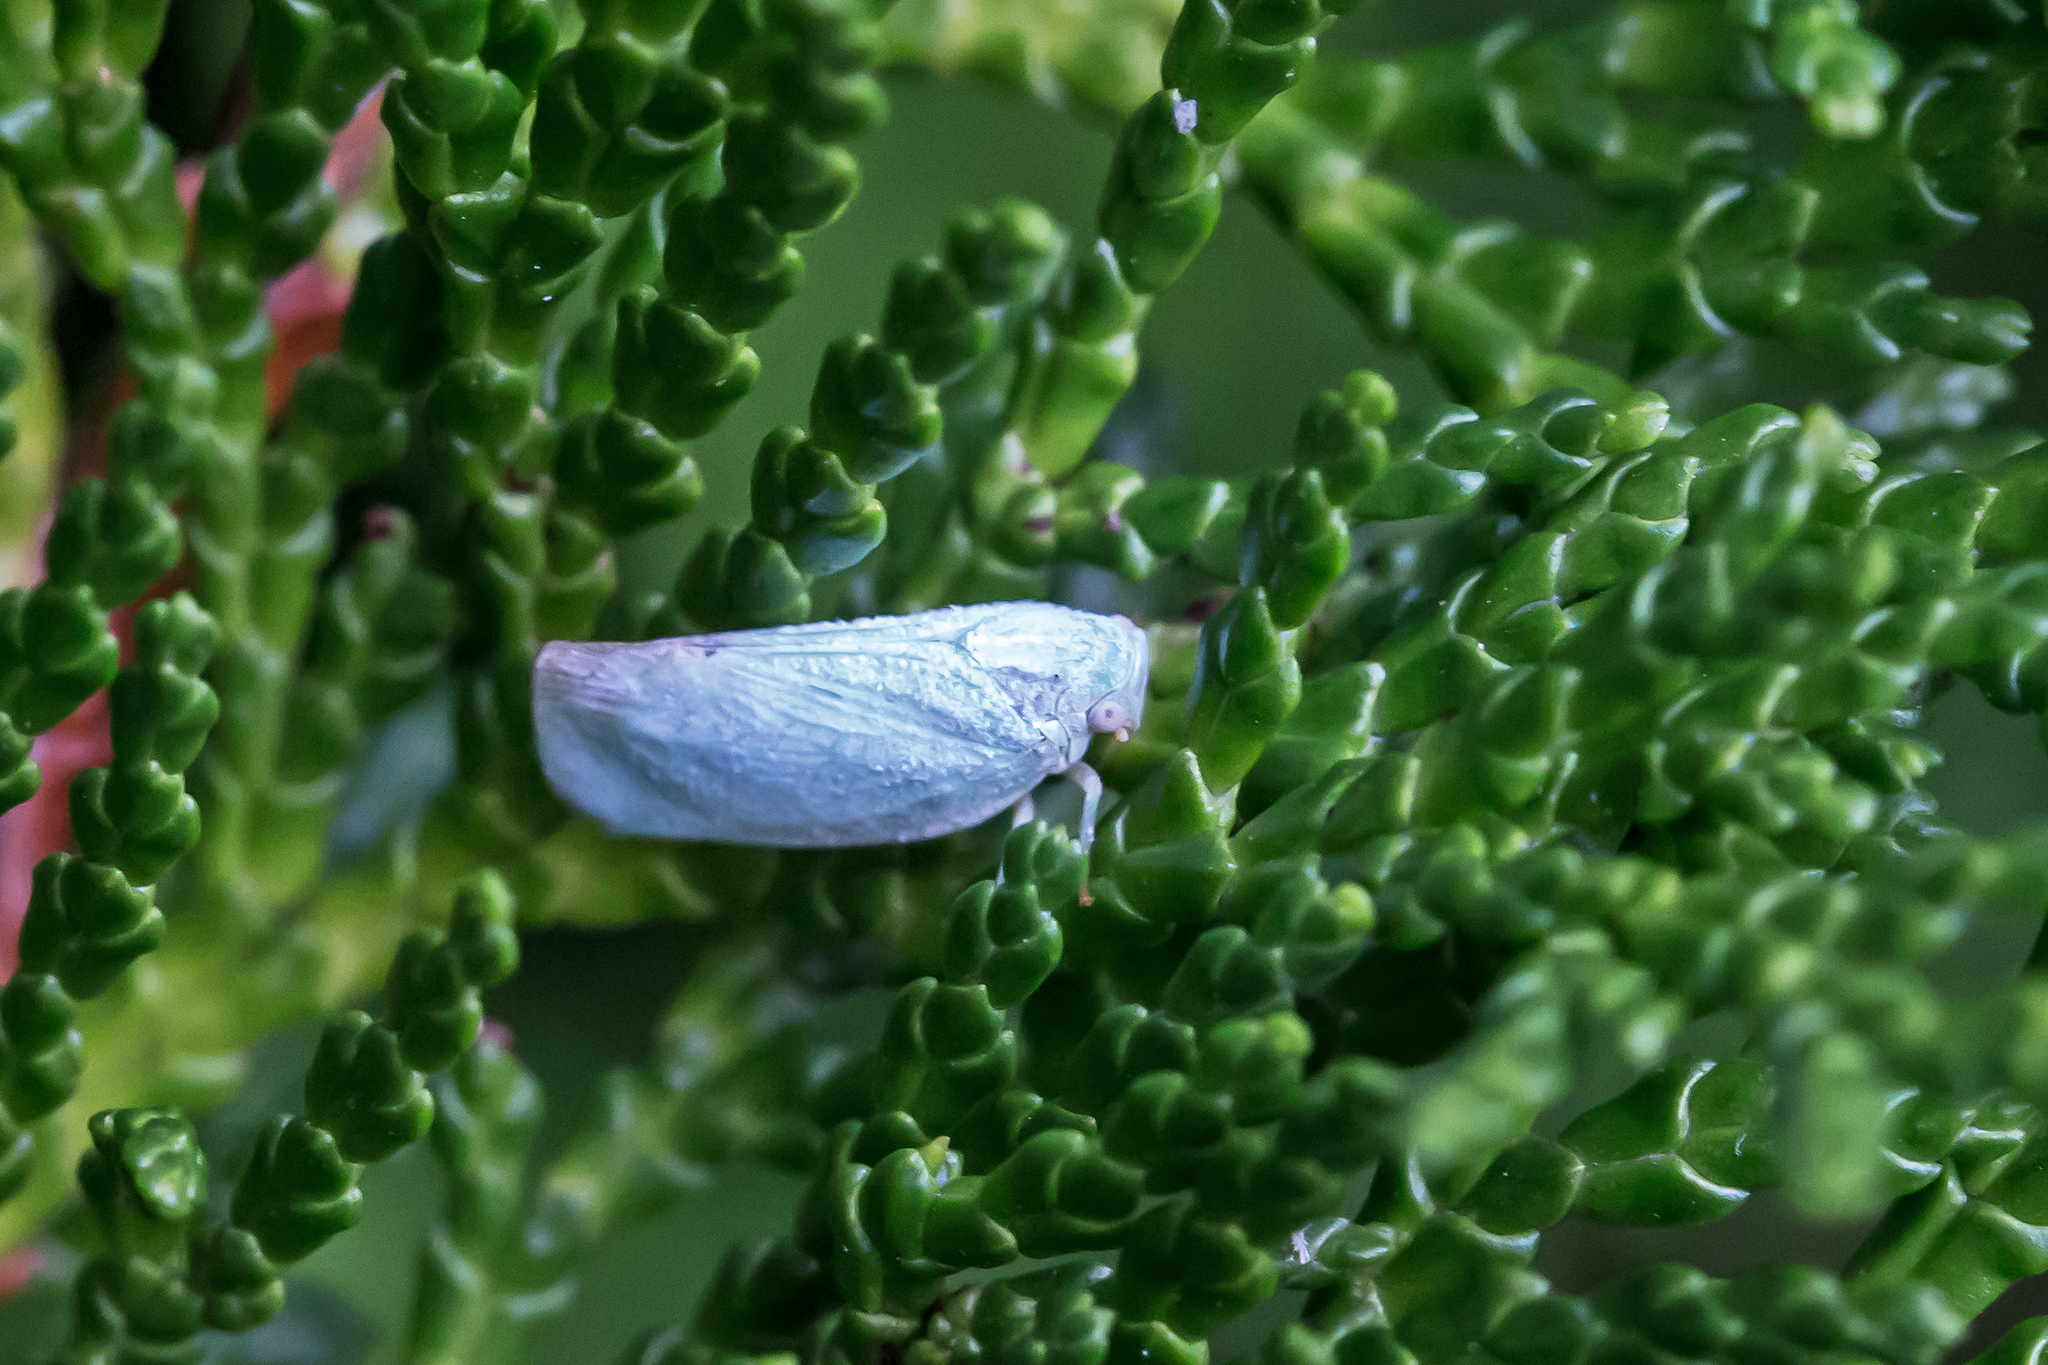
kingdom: Animalia
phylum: Arthropoda
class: Insecta
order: Hemiptera
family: Flatidae
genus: Flatormenis
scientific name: Flatormenis proxima
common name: Northern flatid planthopper
